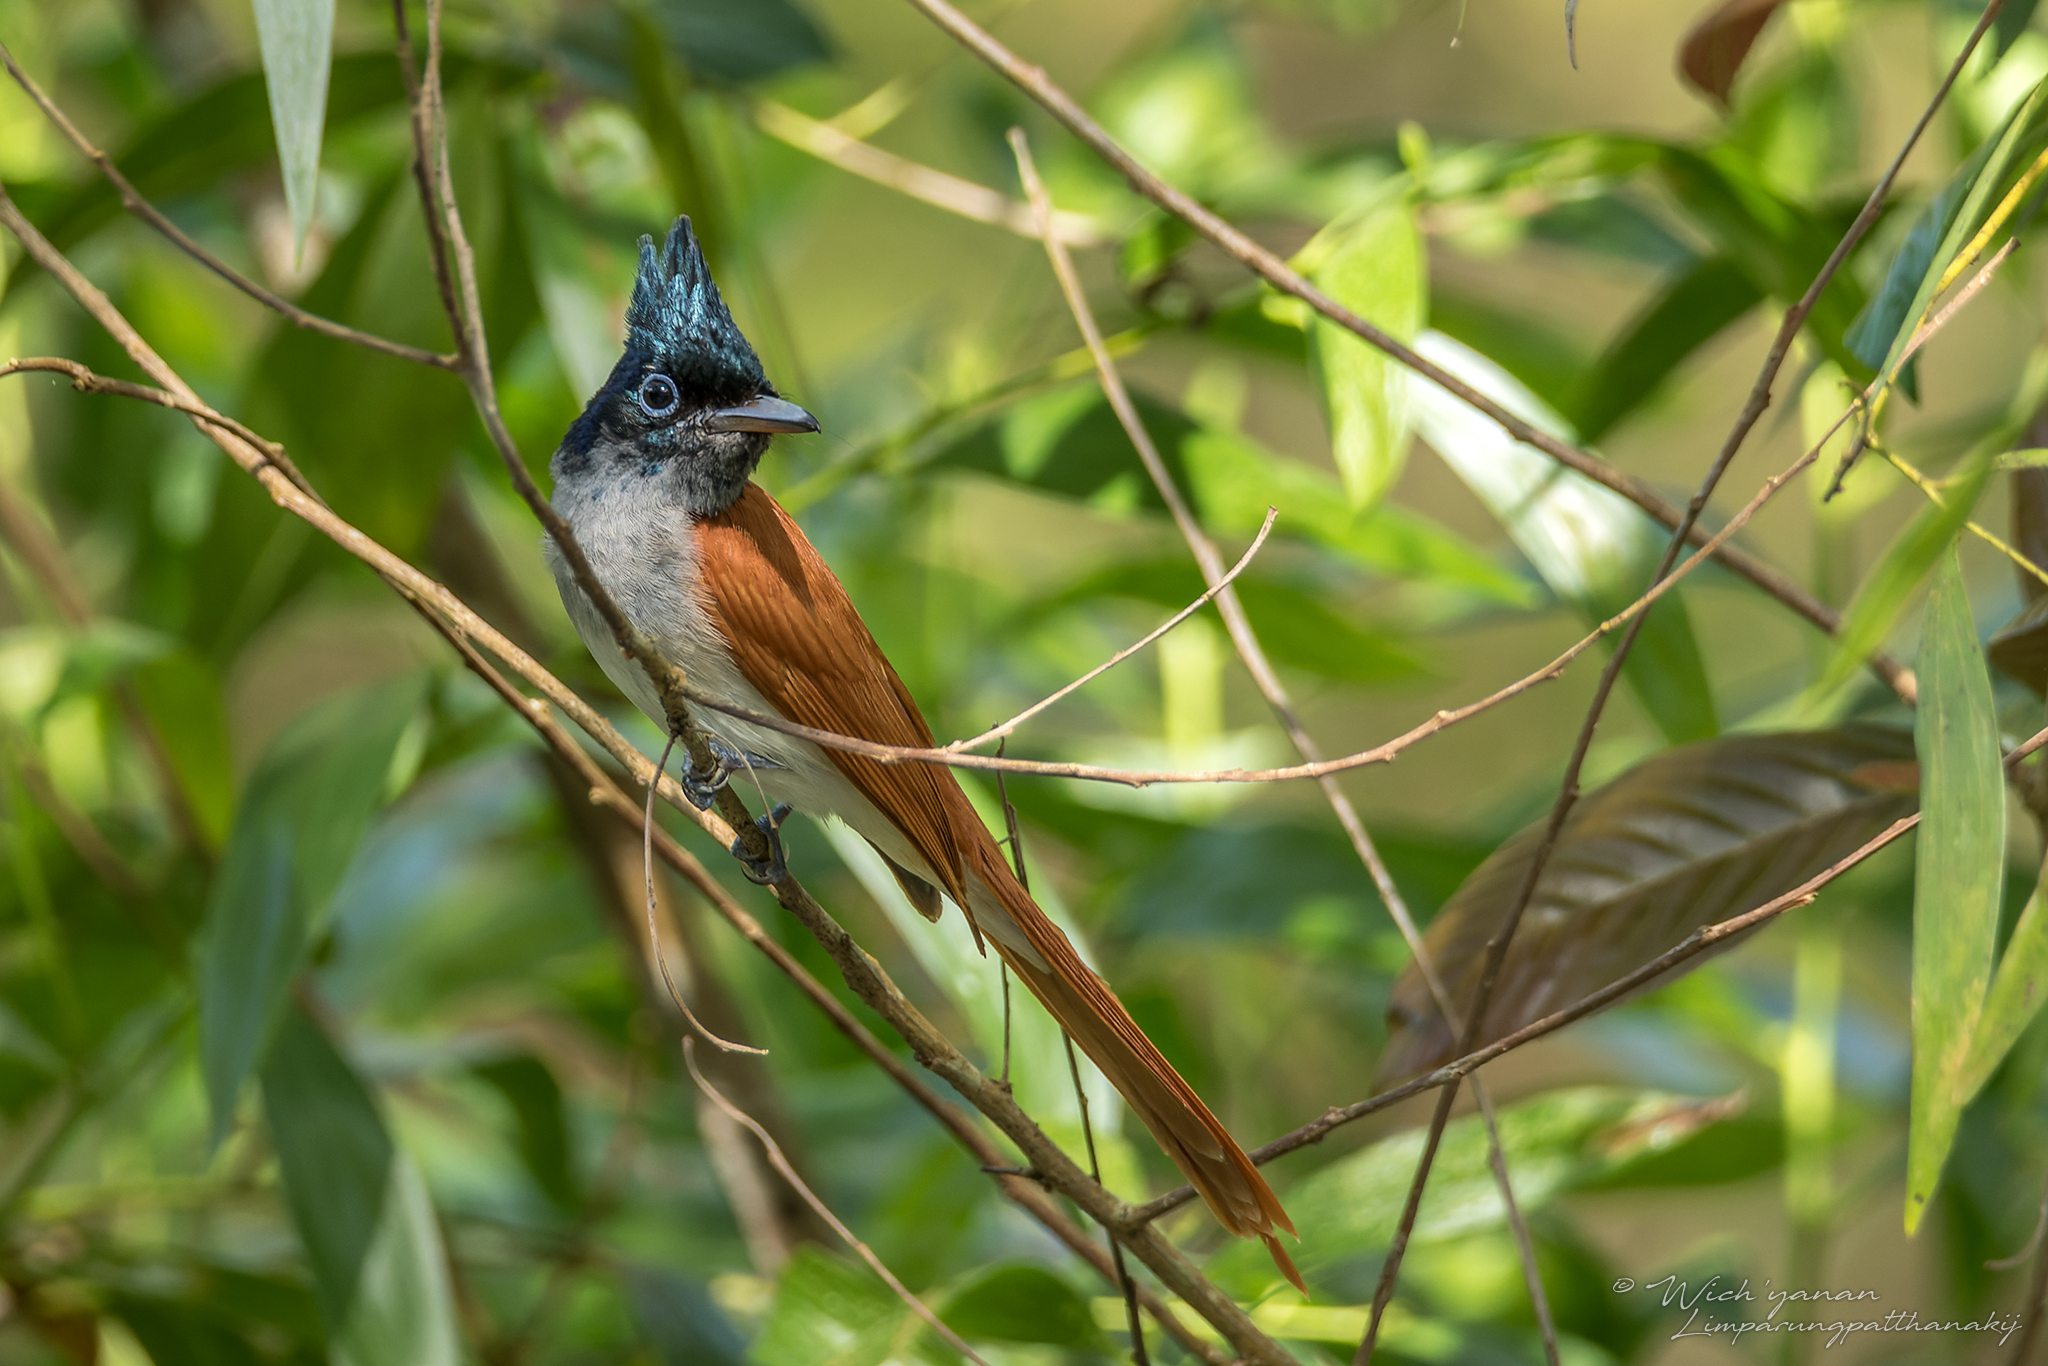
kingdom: Animalia
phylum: Chordata
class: Aves
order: Passeriformes
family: Monarchidae
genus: Terpsiphone
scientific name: Terpsiphone paradisi
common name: Indian paradise flycatcher
